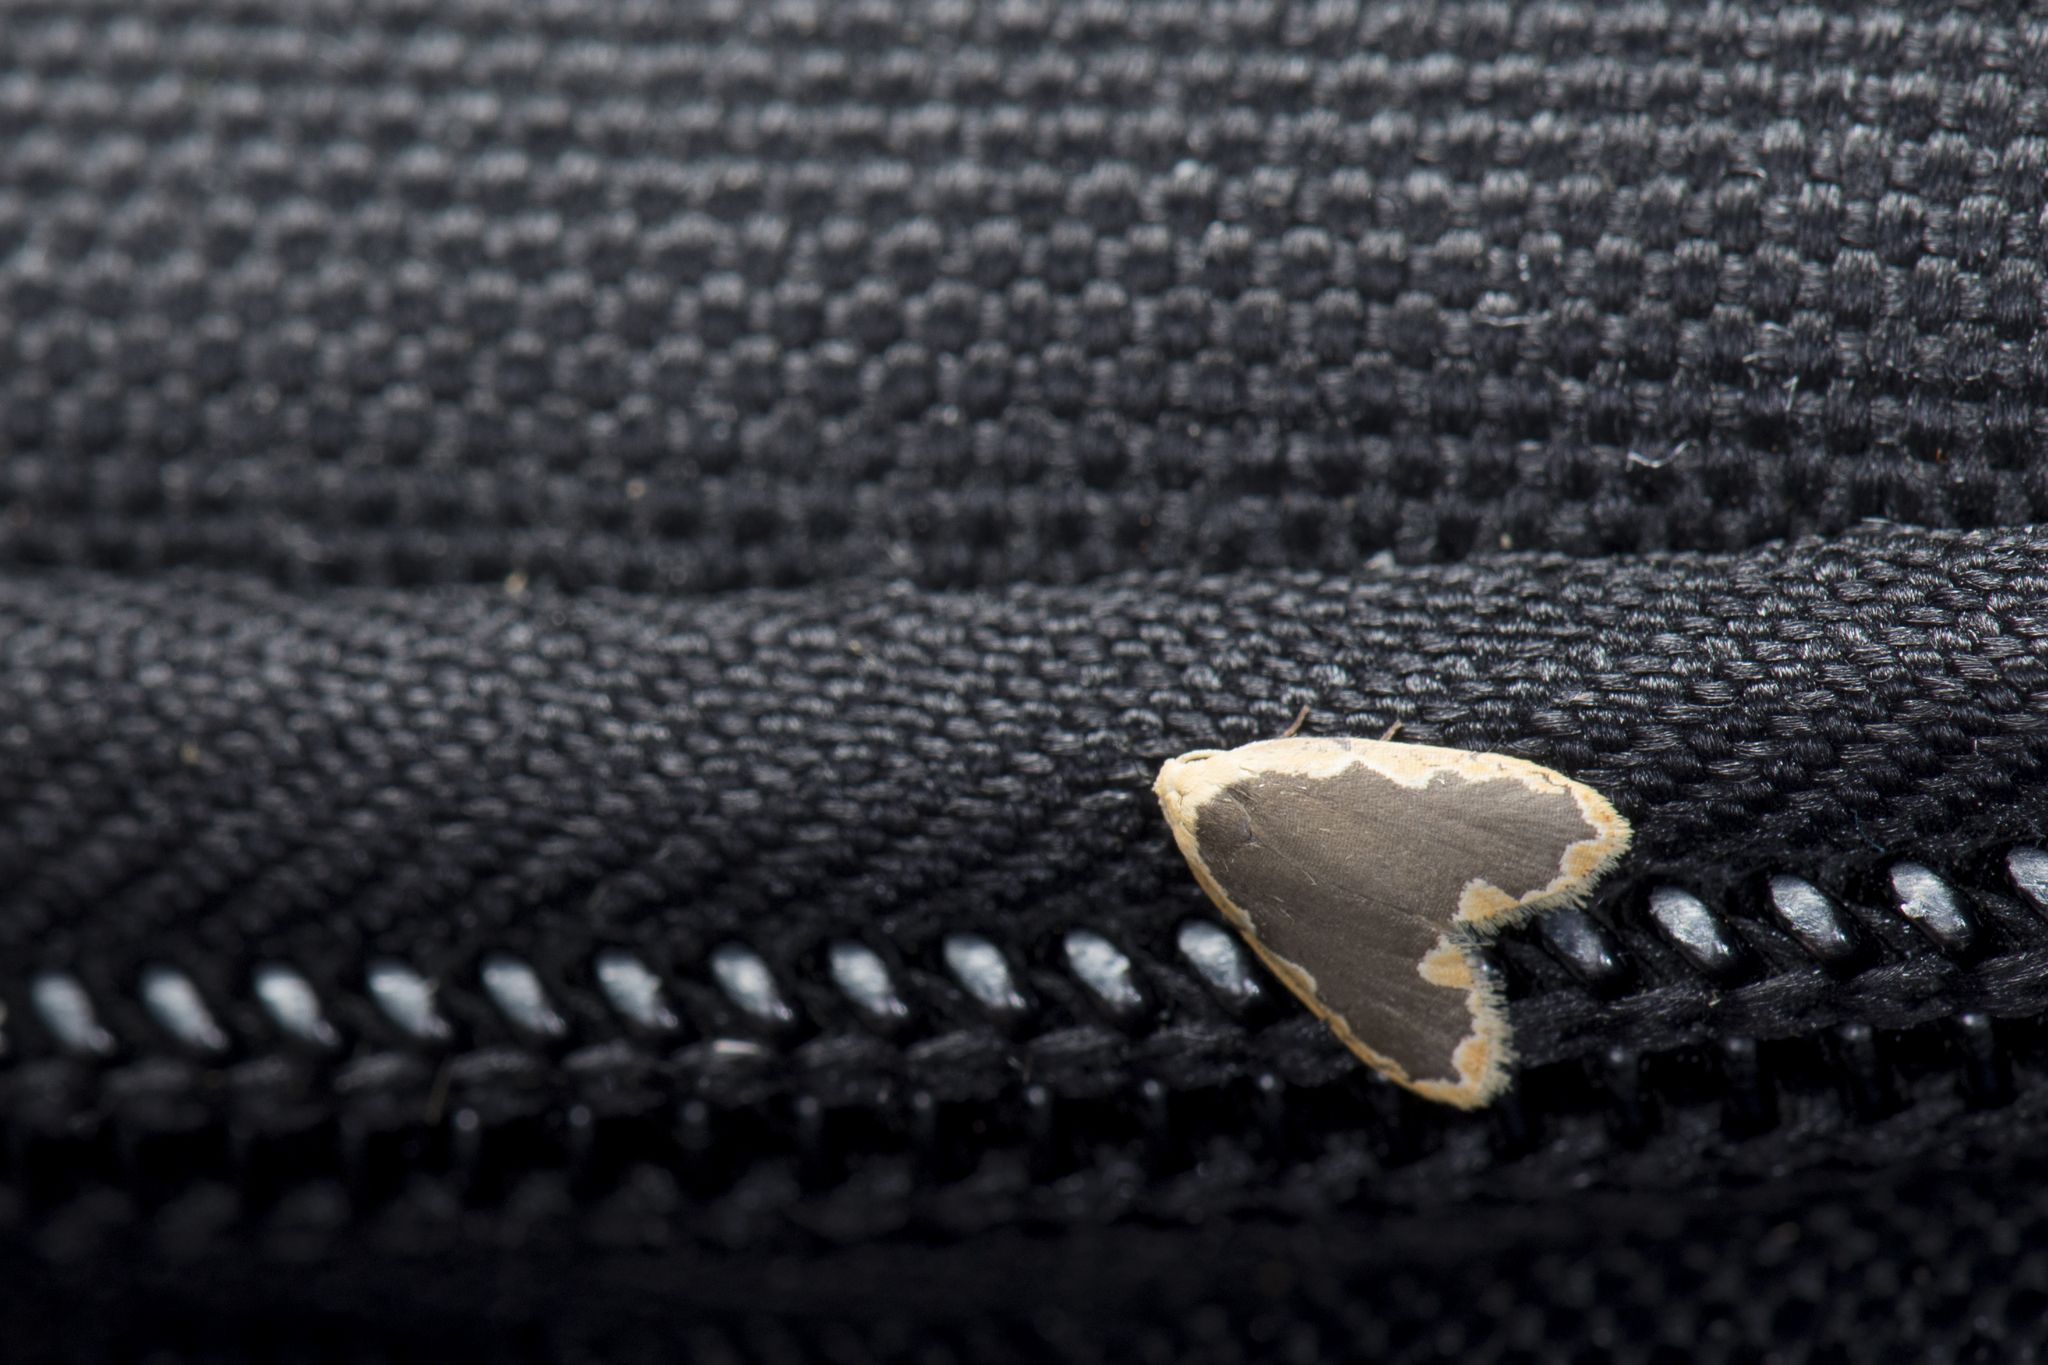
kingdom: Animalia
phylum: Arthropoda
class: Insecta
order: Lepidoptera
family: Erebidae
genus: Diduga
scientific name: Diduga nantouensis
